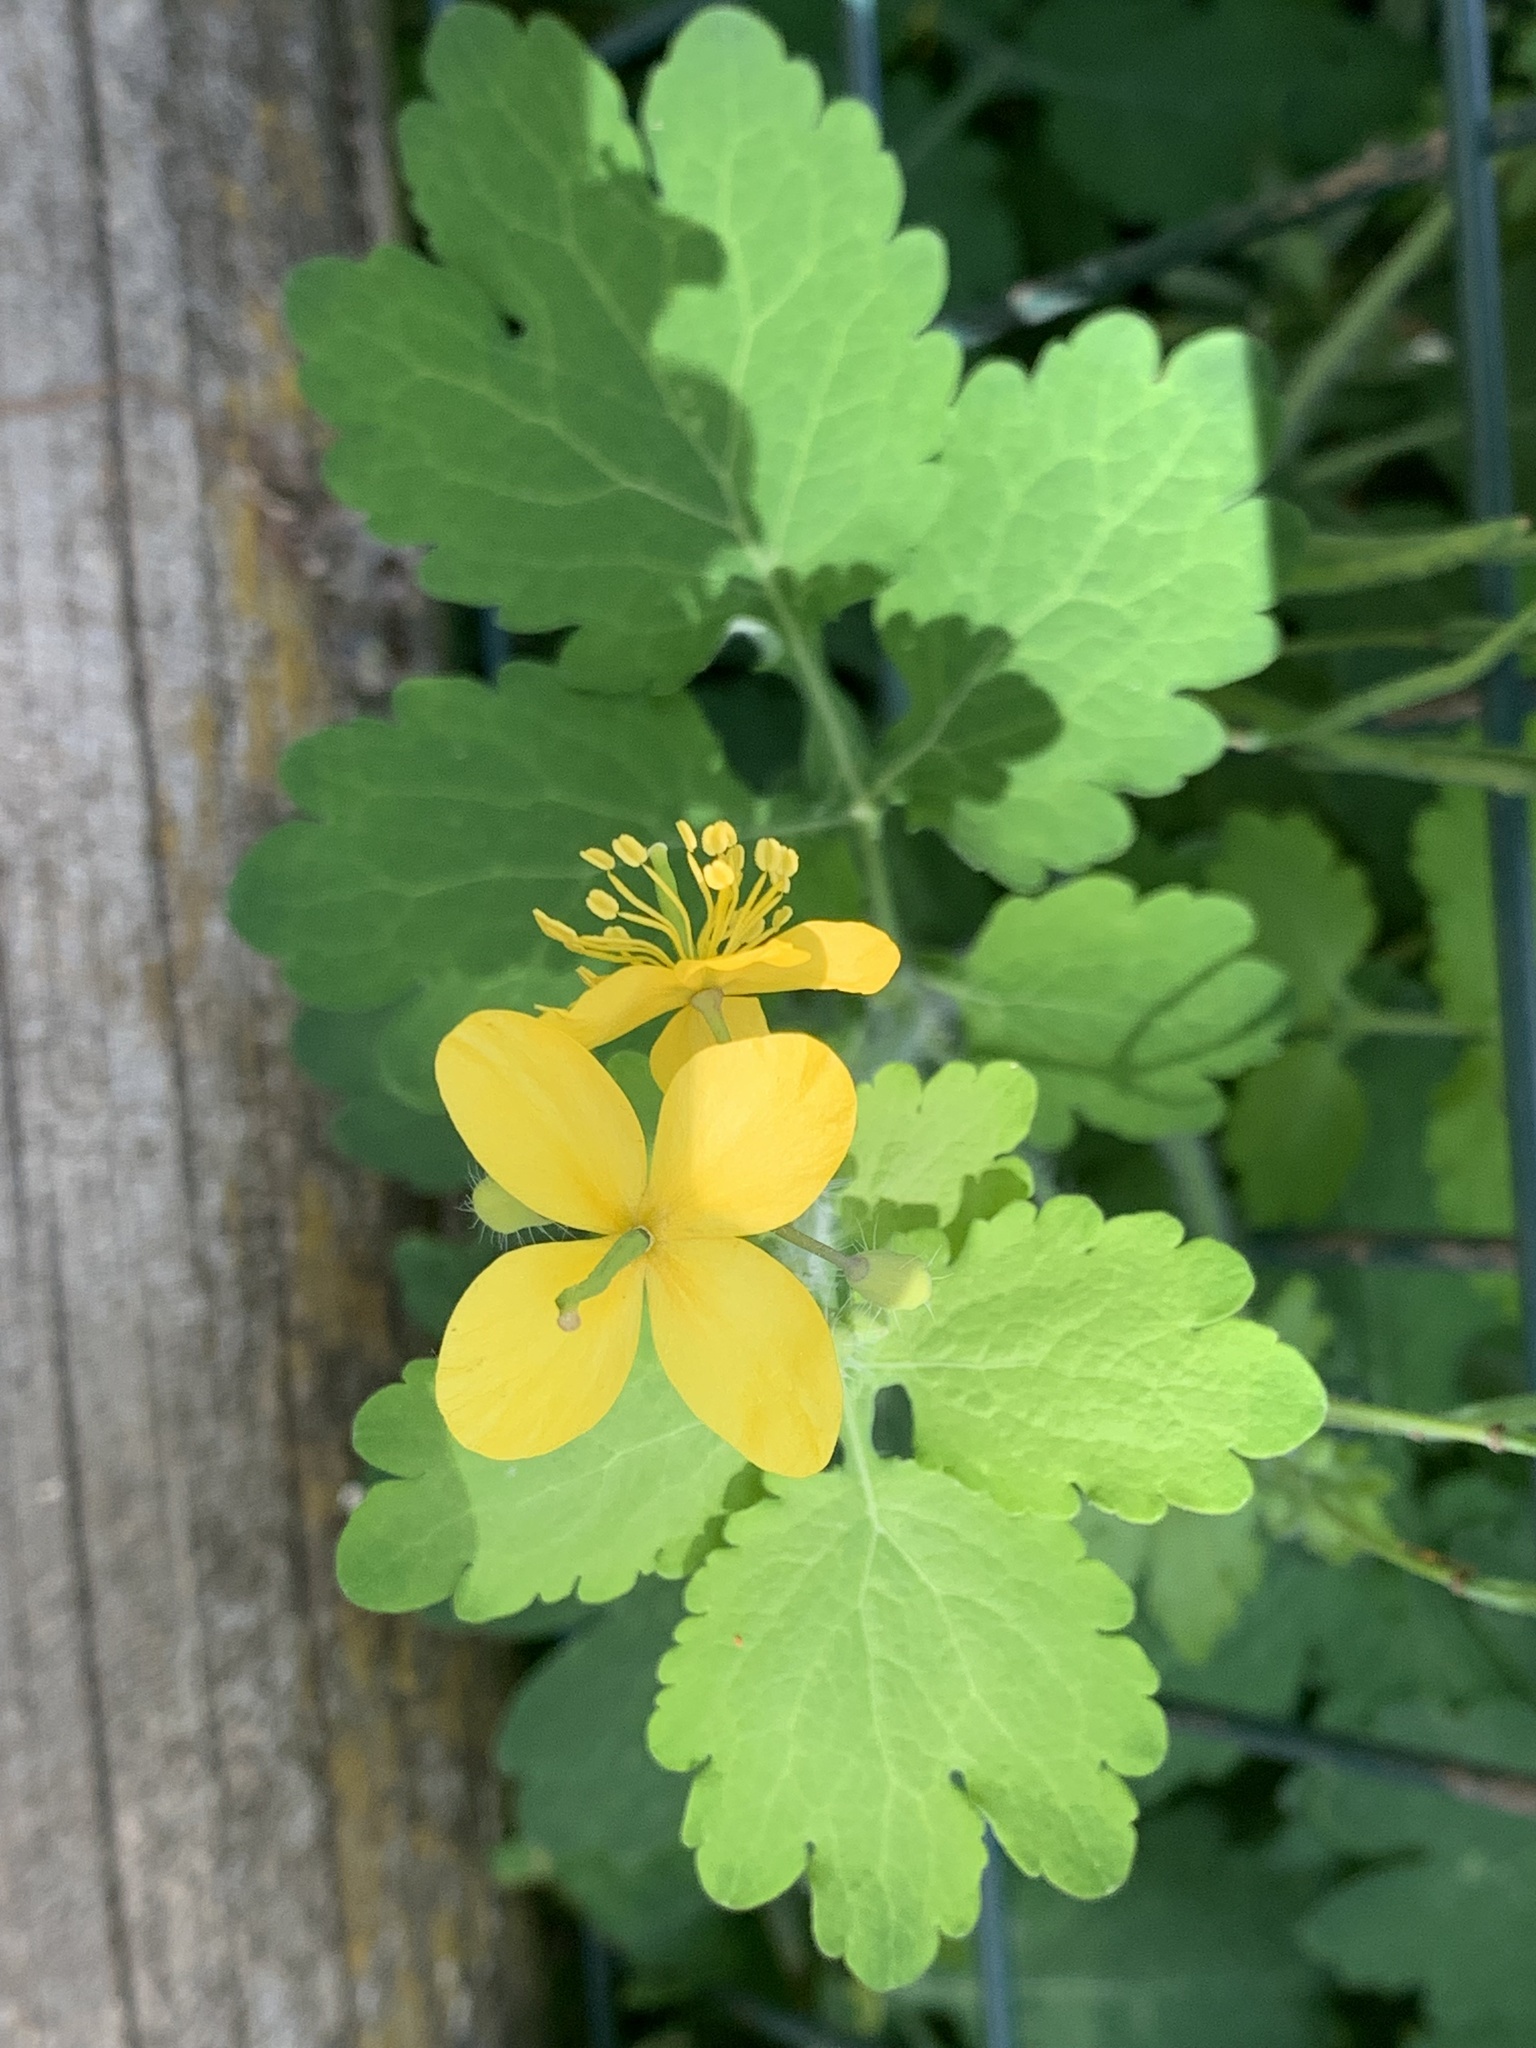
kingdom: Plantae
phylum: Tracheophyta
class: Magnoliopsida
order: Ranunculales
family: Papaveraceae
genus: Chelidonium
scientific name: Chelidonium majus
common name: Greater celandine
